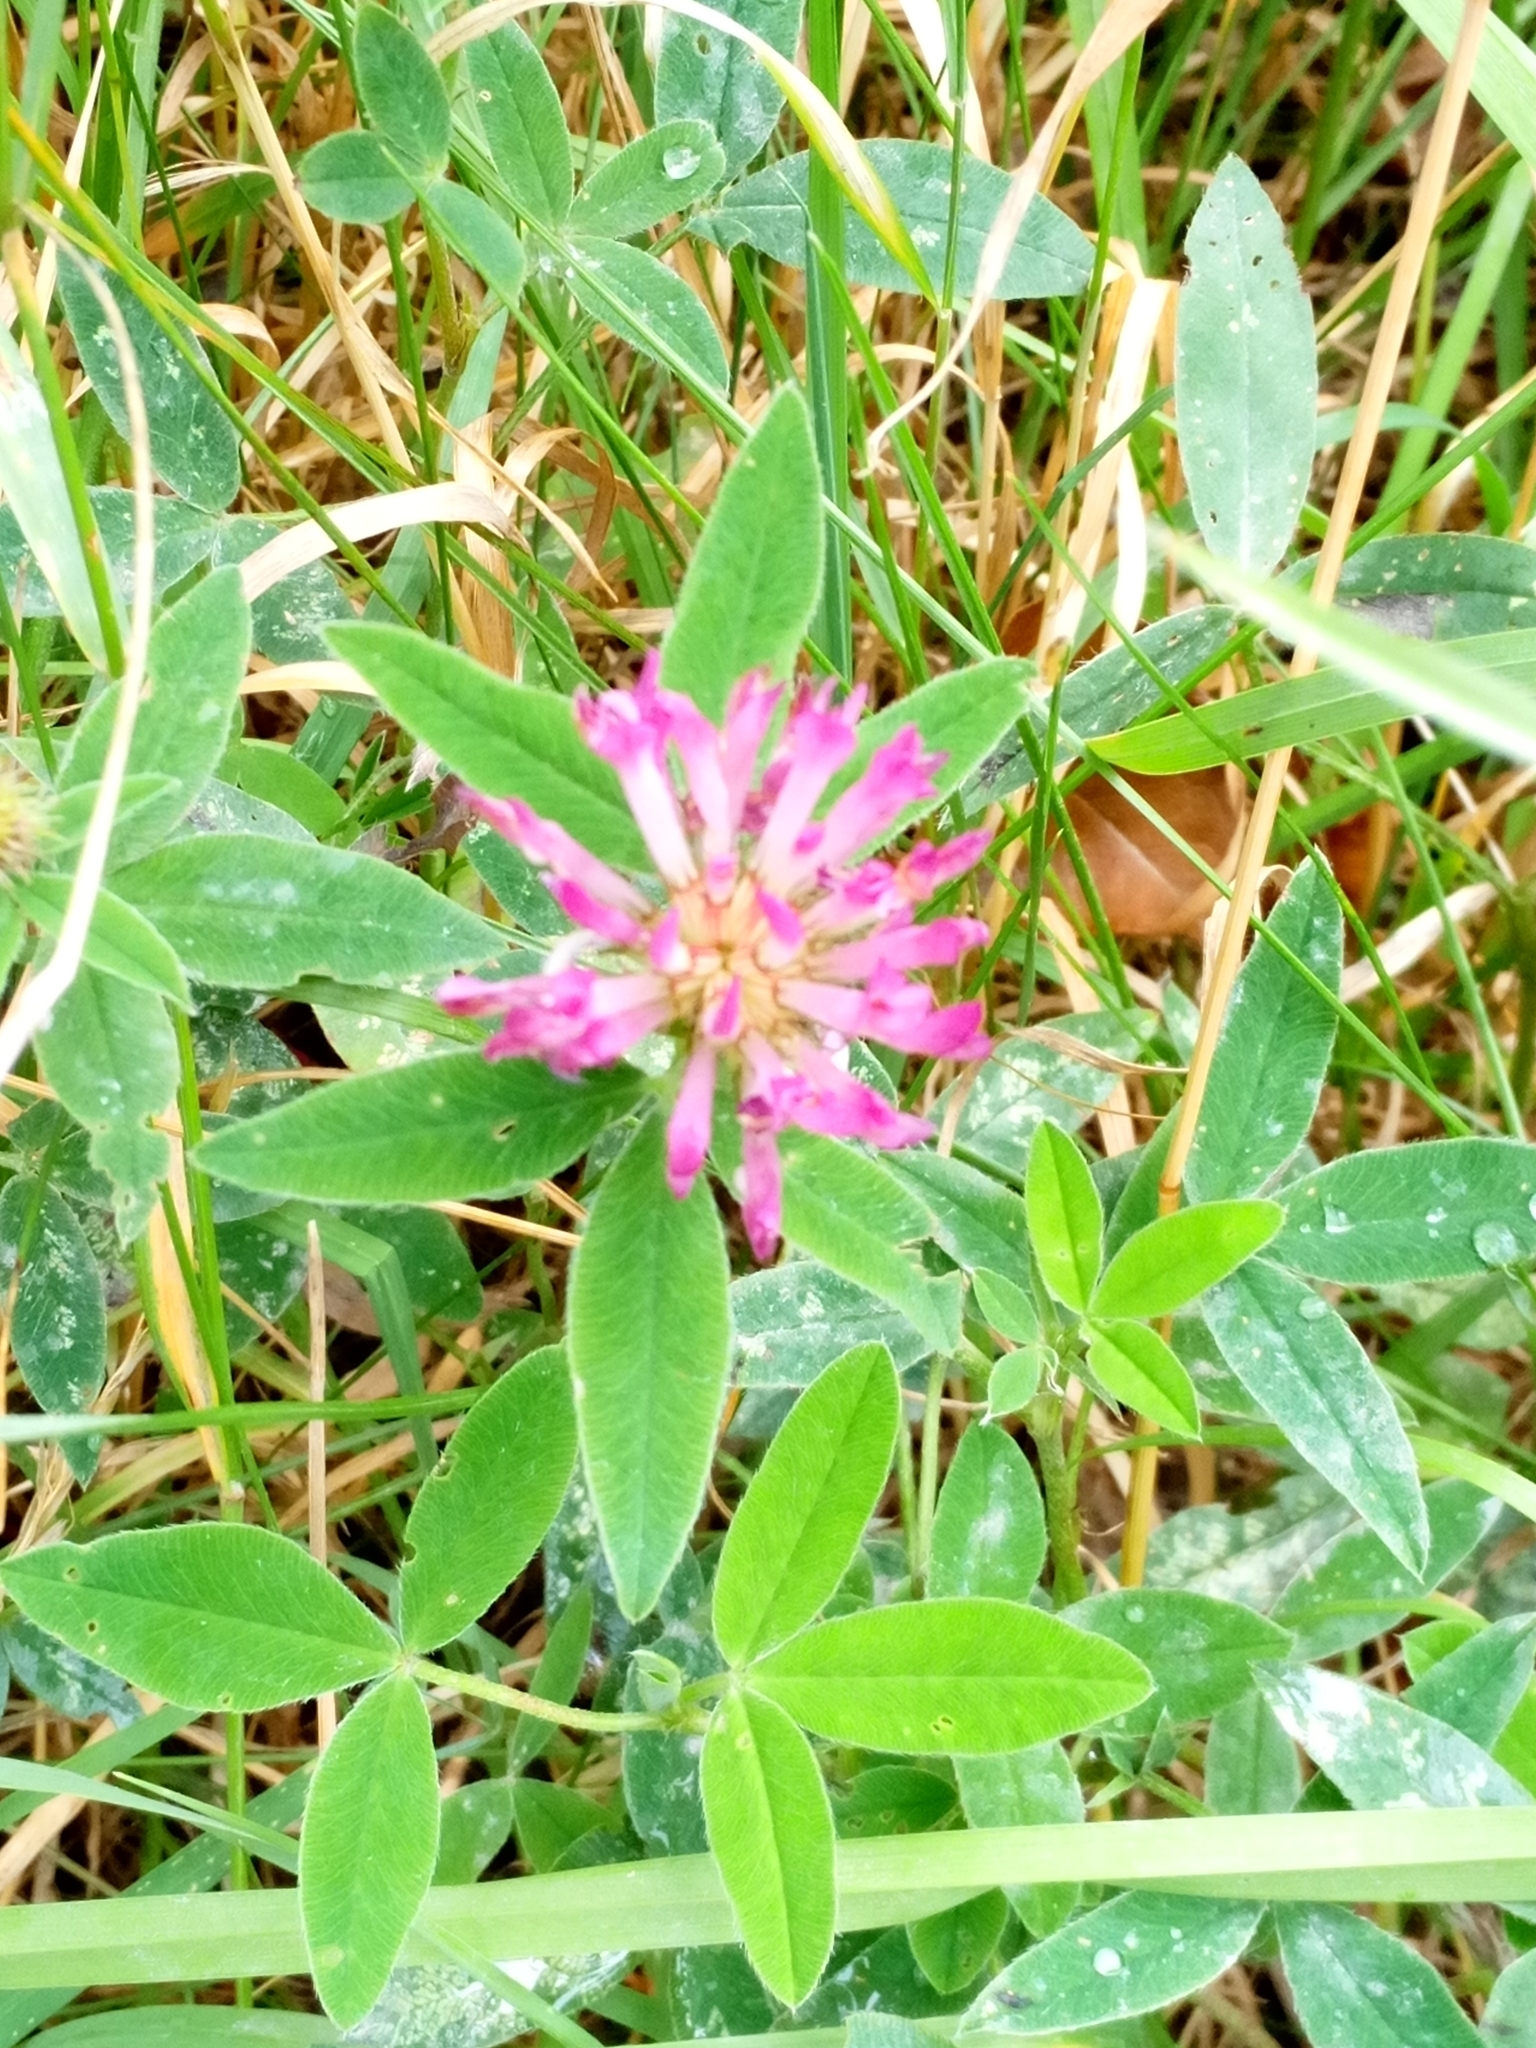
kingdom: Plantae
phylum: Tracheophyta
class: Magnoliopsida
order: Fabales
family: Fabaceae
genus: Trifolium
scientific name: Trifolium medium
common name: Zigzag clover
